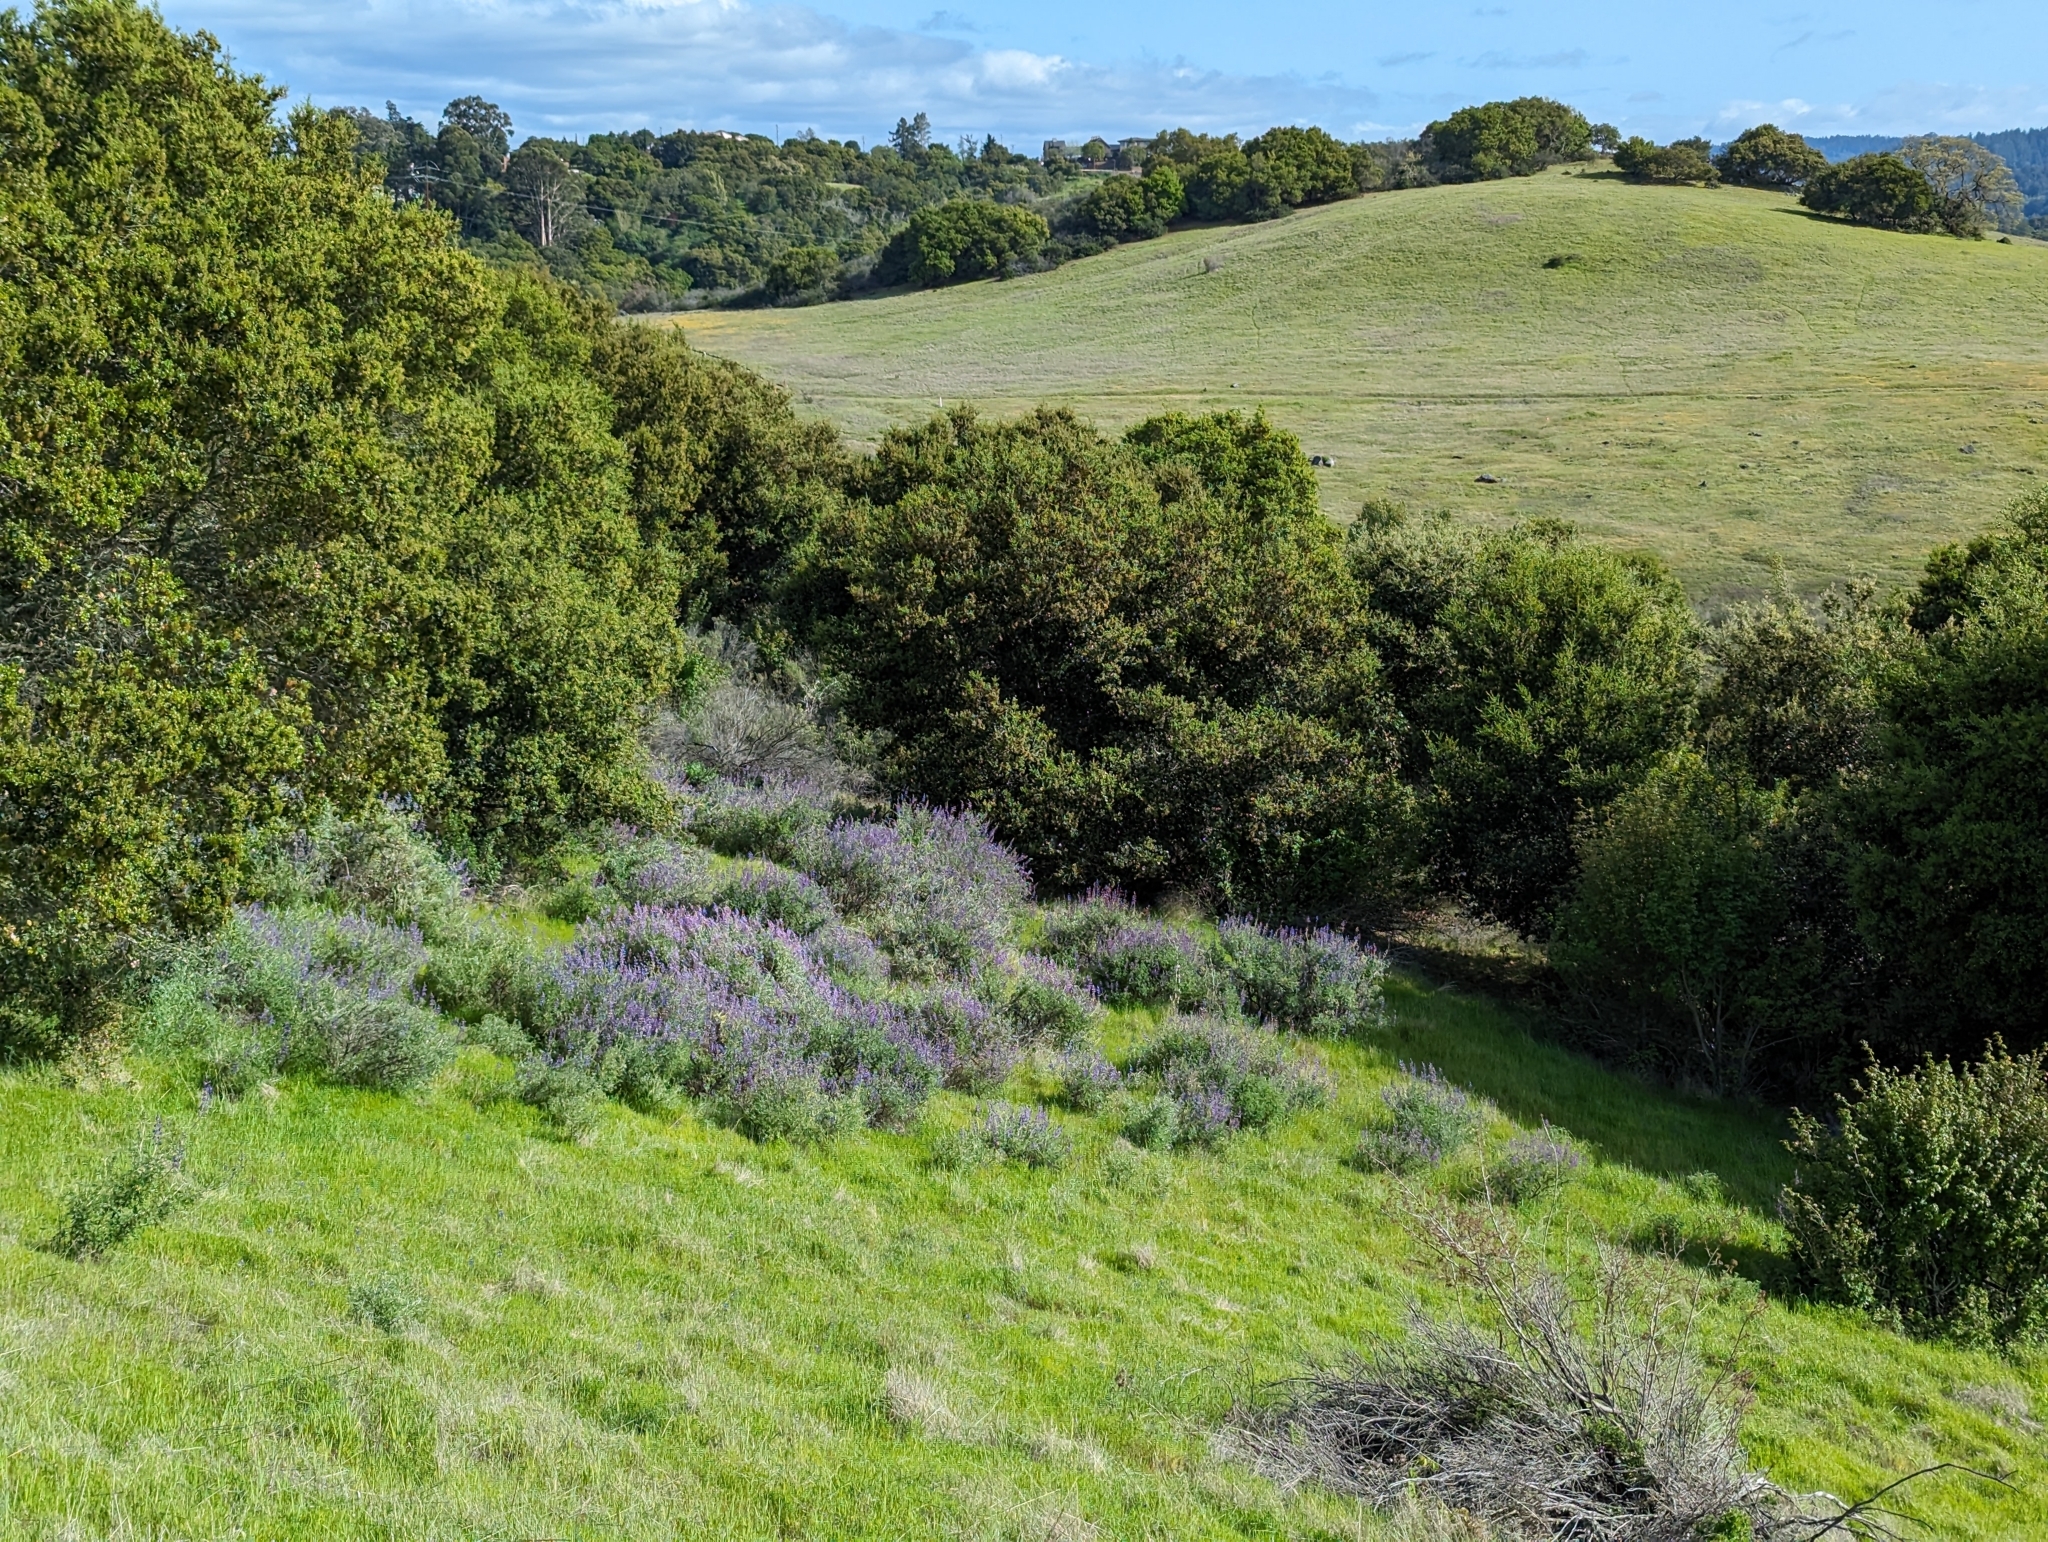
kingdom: Plantae
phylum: Tracheophyta
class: Magnoliopsida
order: Fabales
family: Fabaceae
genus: Lupinus
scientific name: Lupinus albifrons
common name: Foothill lupine
